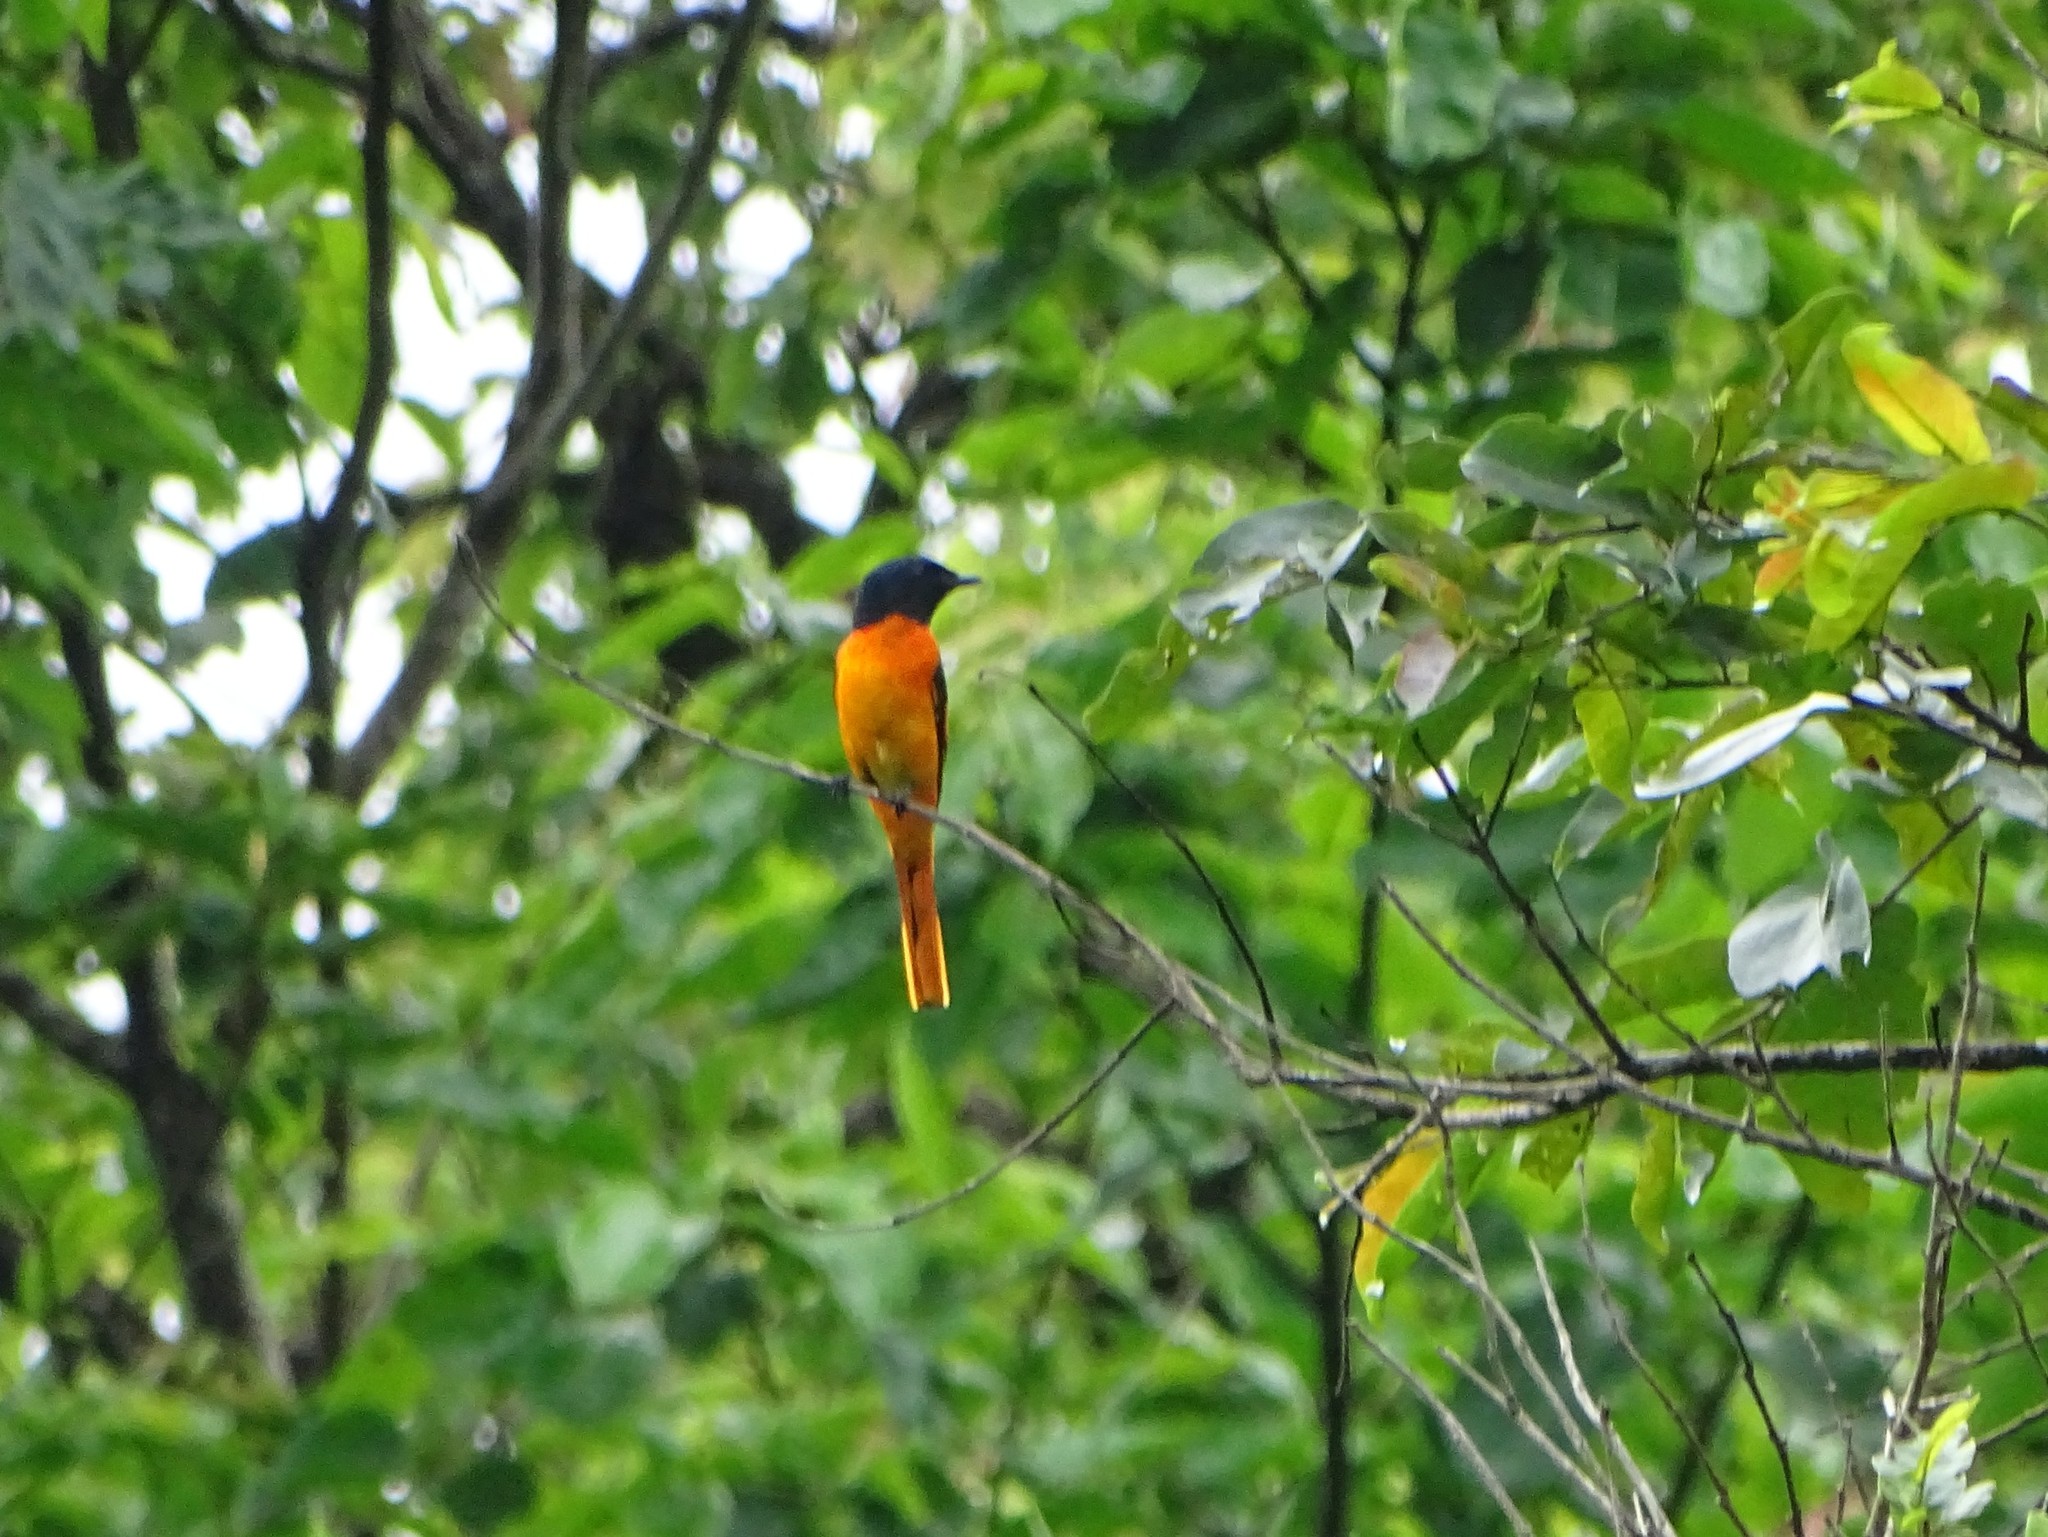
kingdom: Animalia
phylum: Chordata
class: Aves
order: Passeriformes
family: Campephagidae
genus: Pericrocotus
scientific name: Pericrocotus flammeus
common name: Orange minivet
